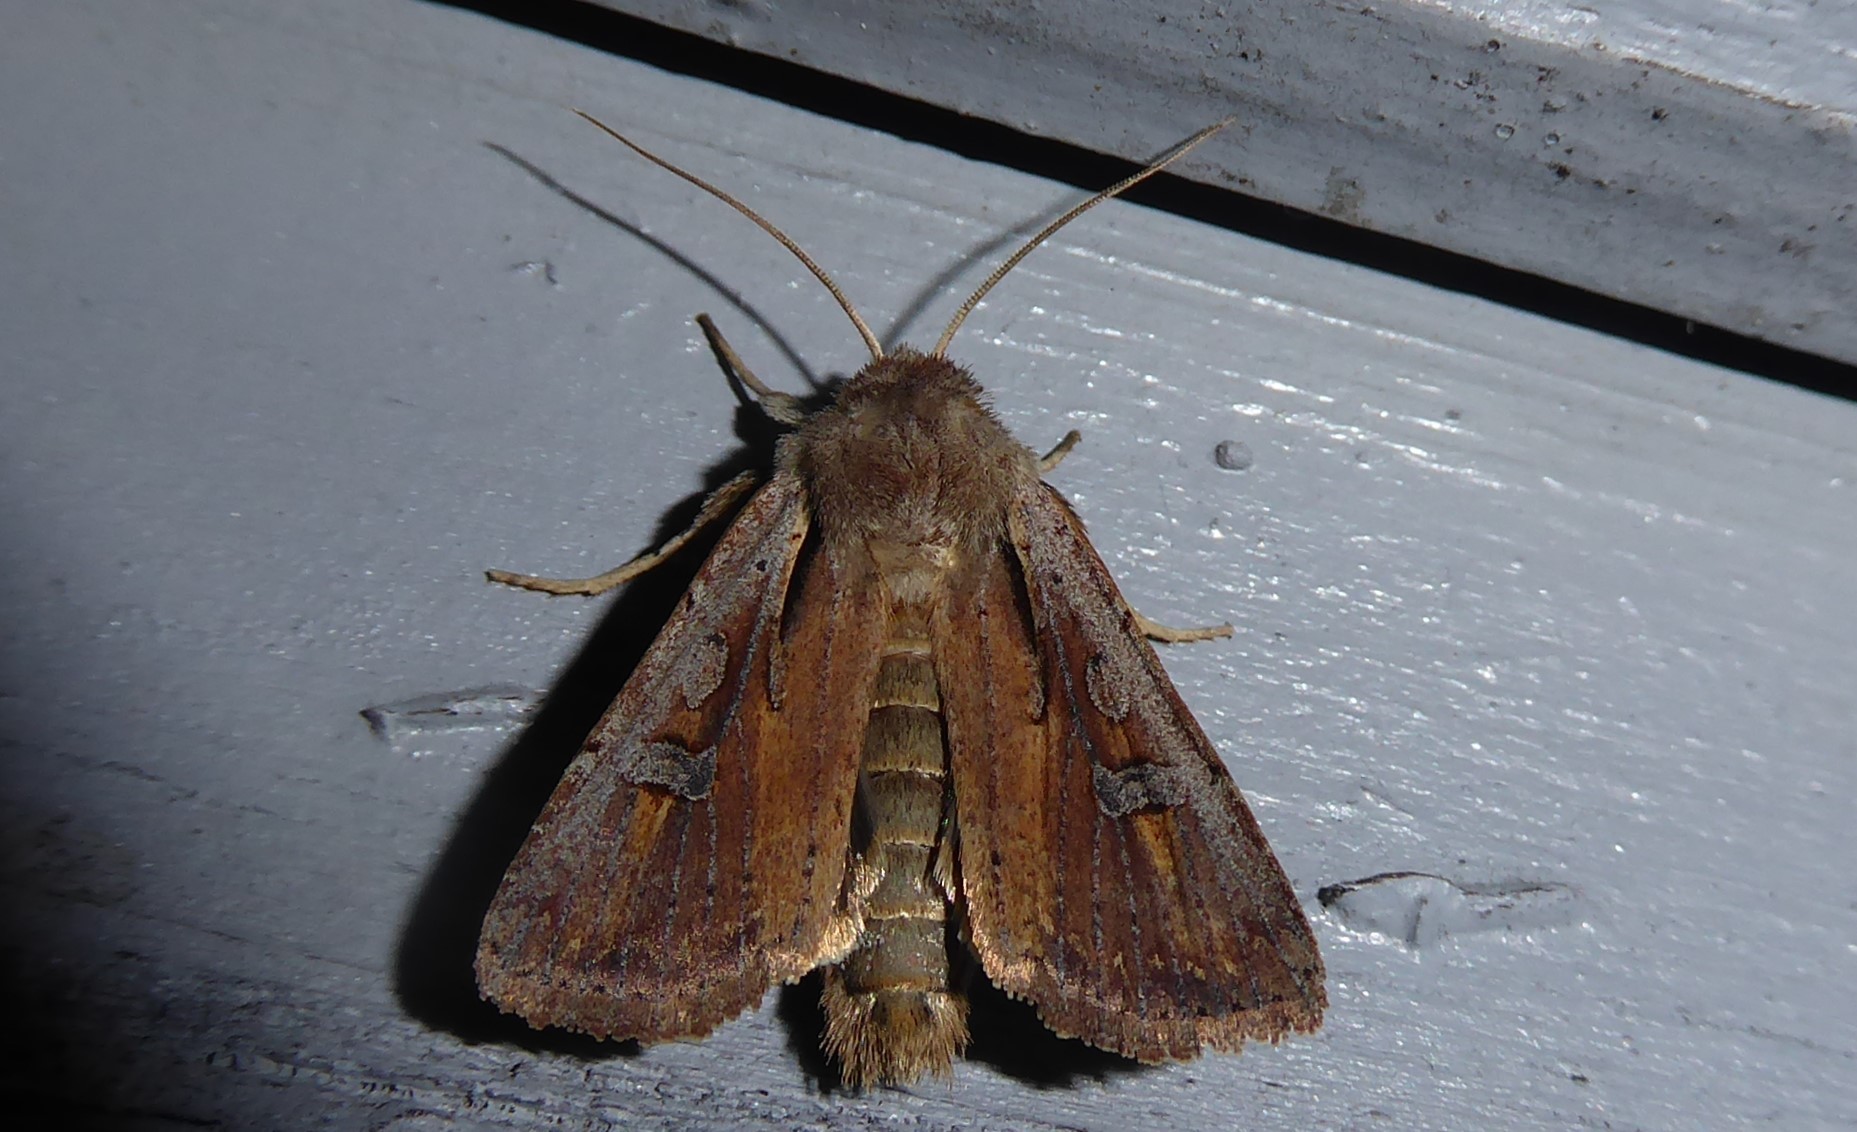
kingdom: Animalia
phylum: Arthropoda
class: Insecta
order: Lepidoptera
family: Noctuidae
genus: Ichneutica
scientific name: Ichneutica atristriga
